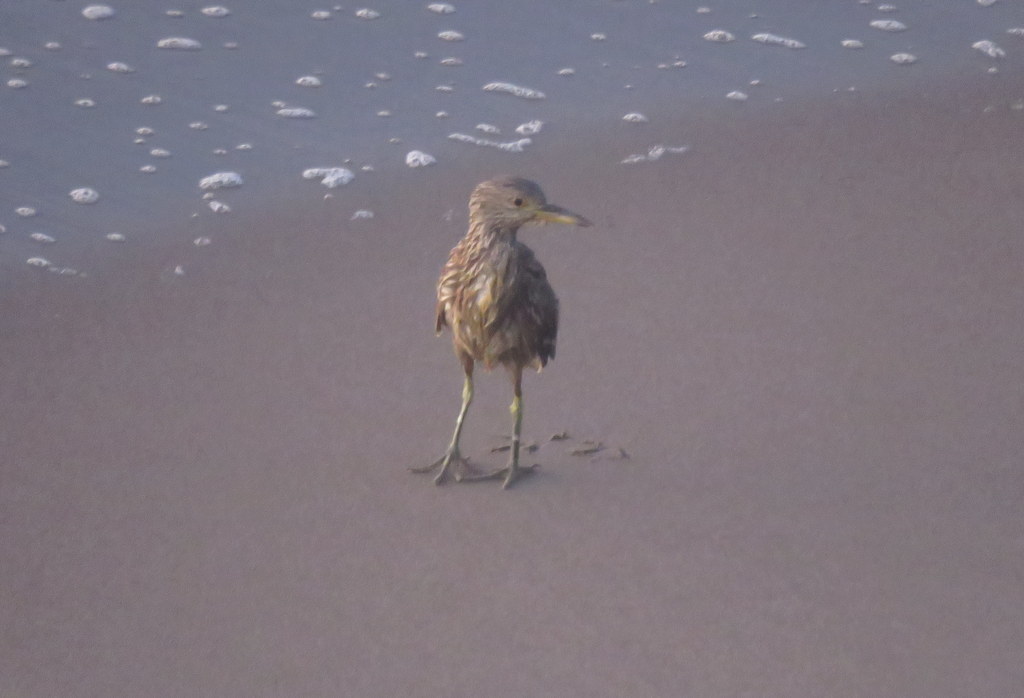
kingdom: Animalia
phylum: Chordata
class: Aves
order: Pelecaniformes
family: Ardeidae
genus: Nycticorax
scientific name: Nycticorax nycticorax
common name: Black-crowned night heron
